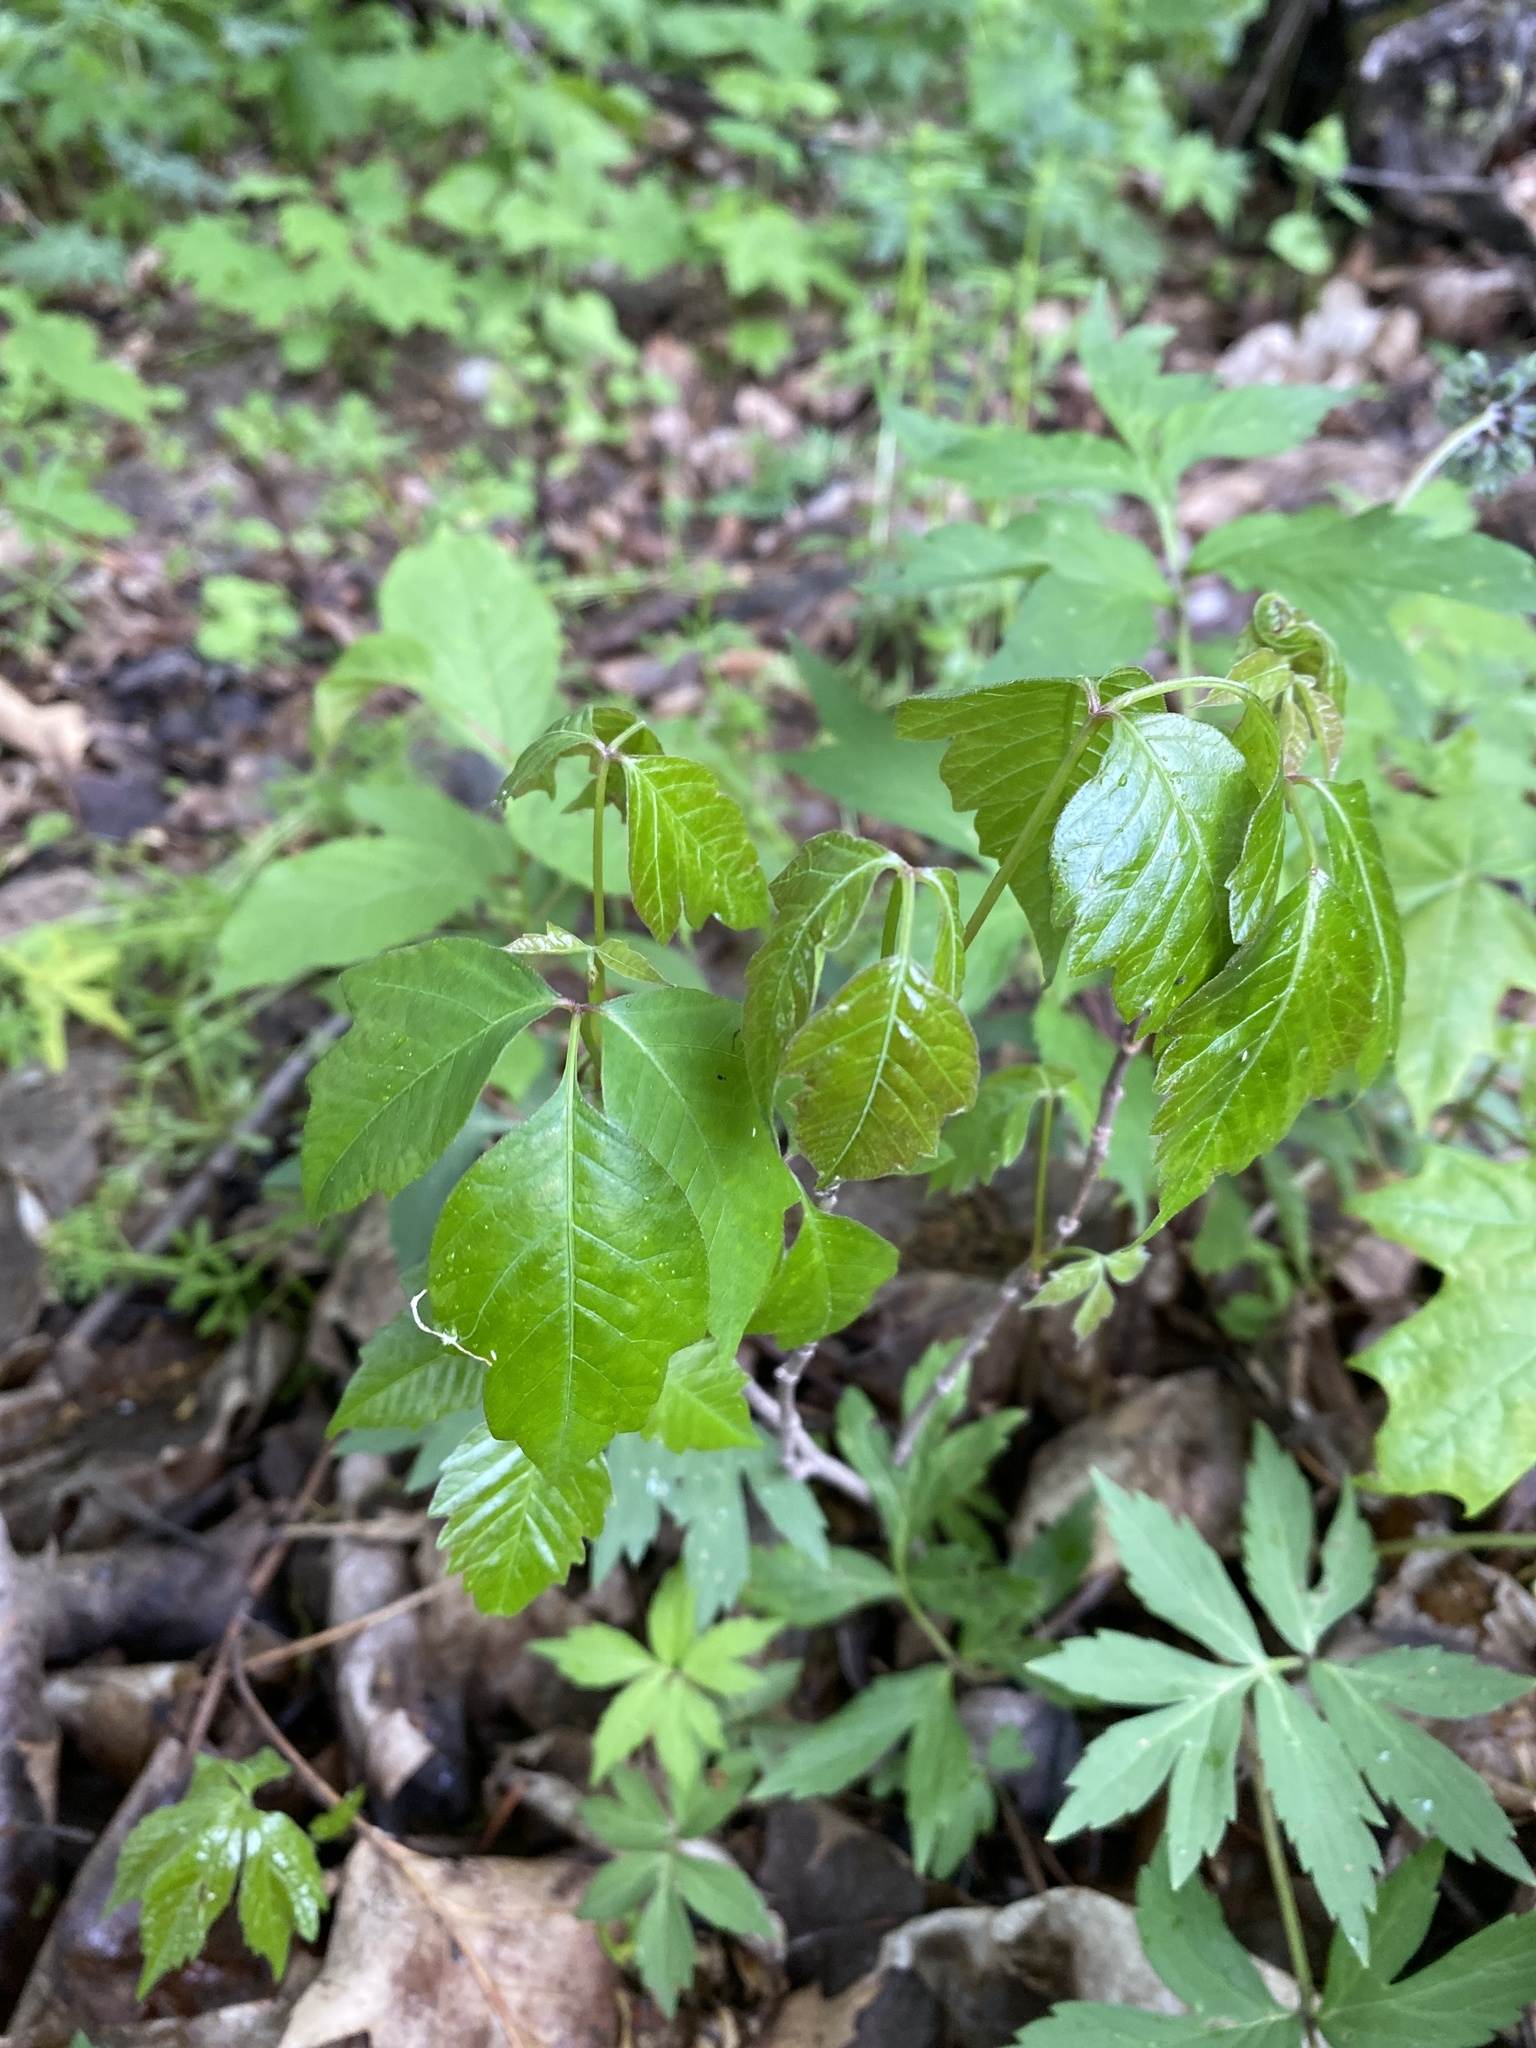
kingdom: Plantae
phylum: Tracheophyta
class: Magnoliopsida
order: Sapindales
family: Anacardiaceae
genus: Toxicodendron
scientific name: Toxicodendron radicans
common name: Poison ivy
